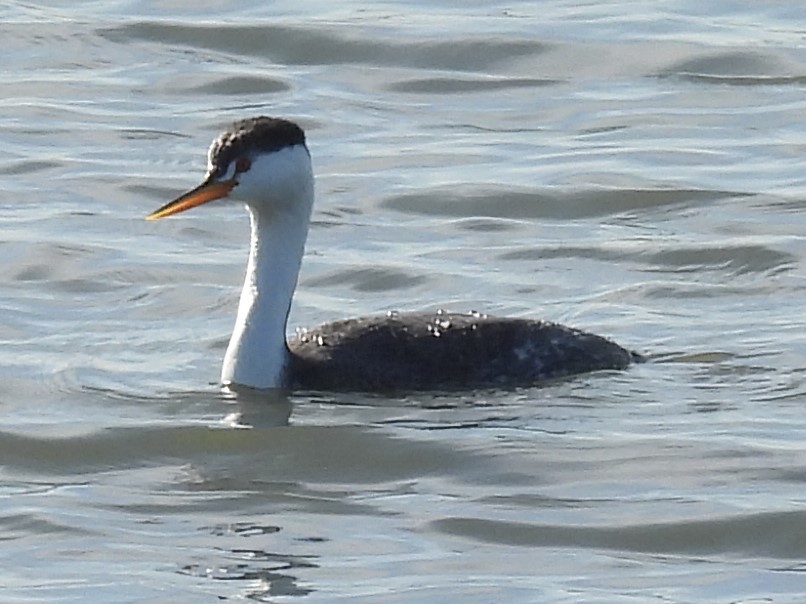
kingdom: Animalia
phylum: Chordata
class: Aves
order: Podicipediformes
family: Podicipedidae
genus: Aechmophorus
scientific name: Aechmophorus clarkii
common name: Clark's grebe
